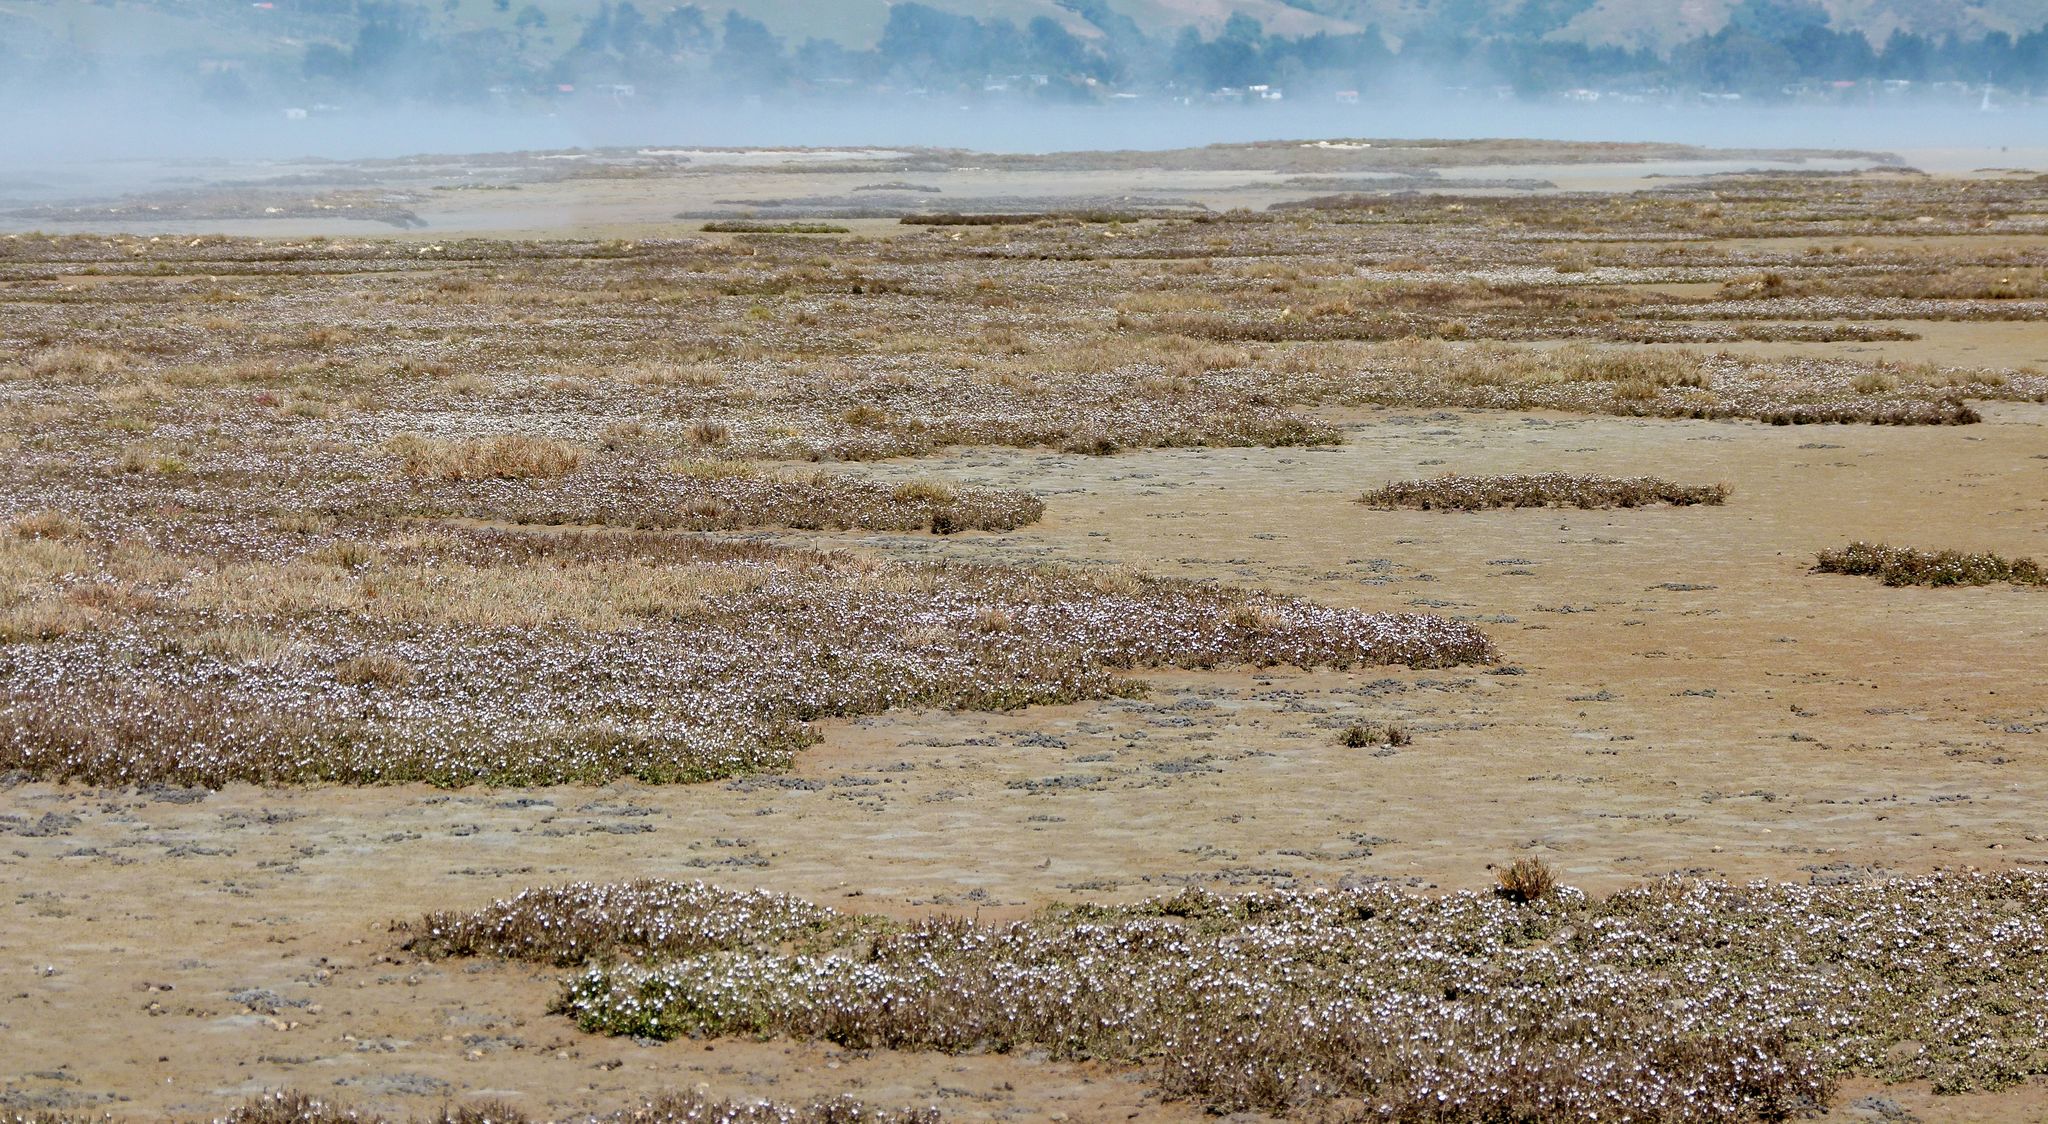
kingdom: Animalia
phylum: Arthropoda
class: Insecta
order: Diptera
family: Dolichopodidae
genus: Scorpiurus
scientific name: Scorpiurus aramoana
